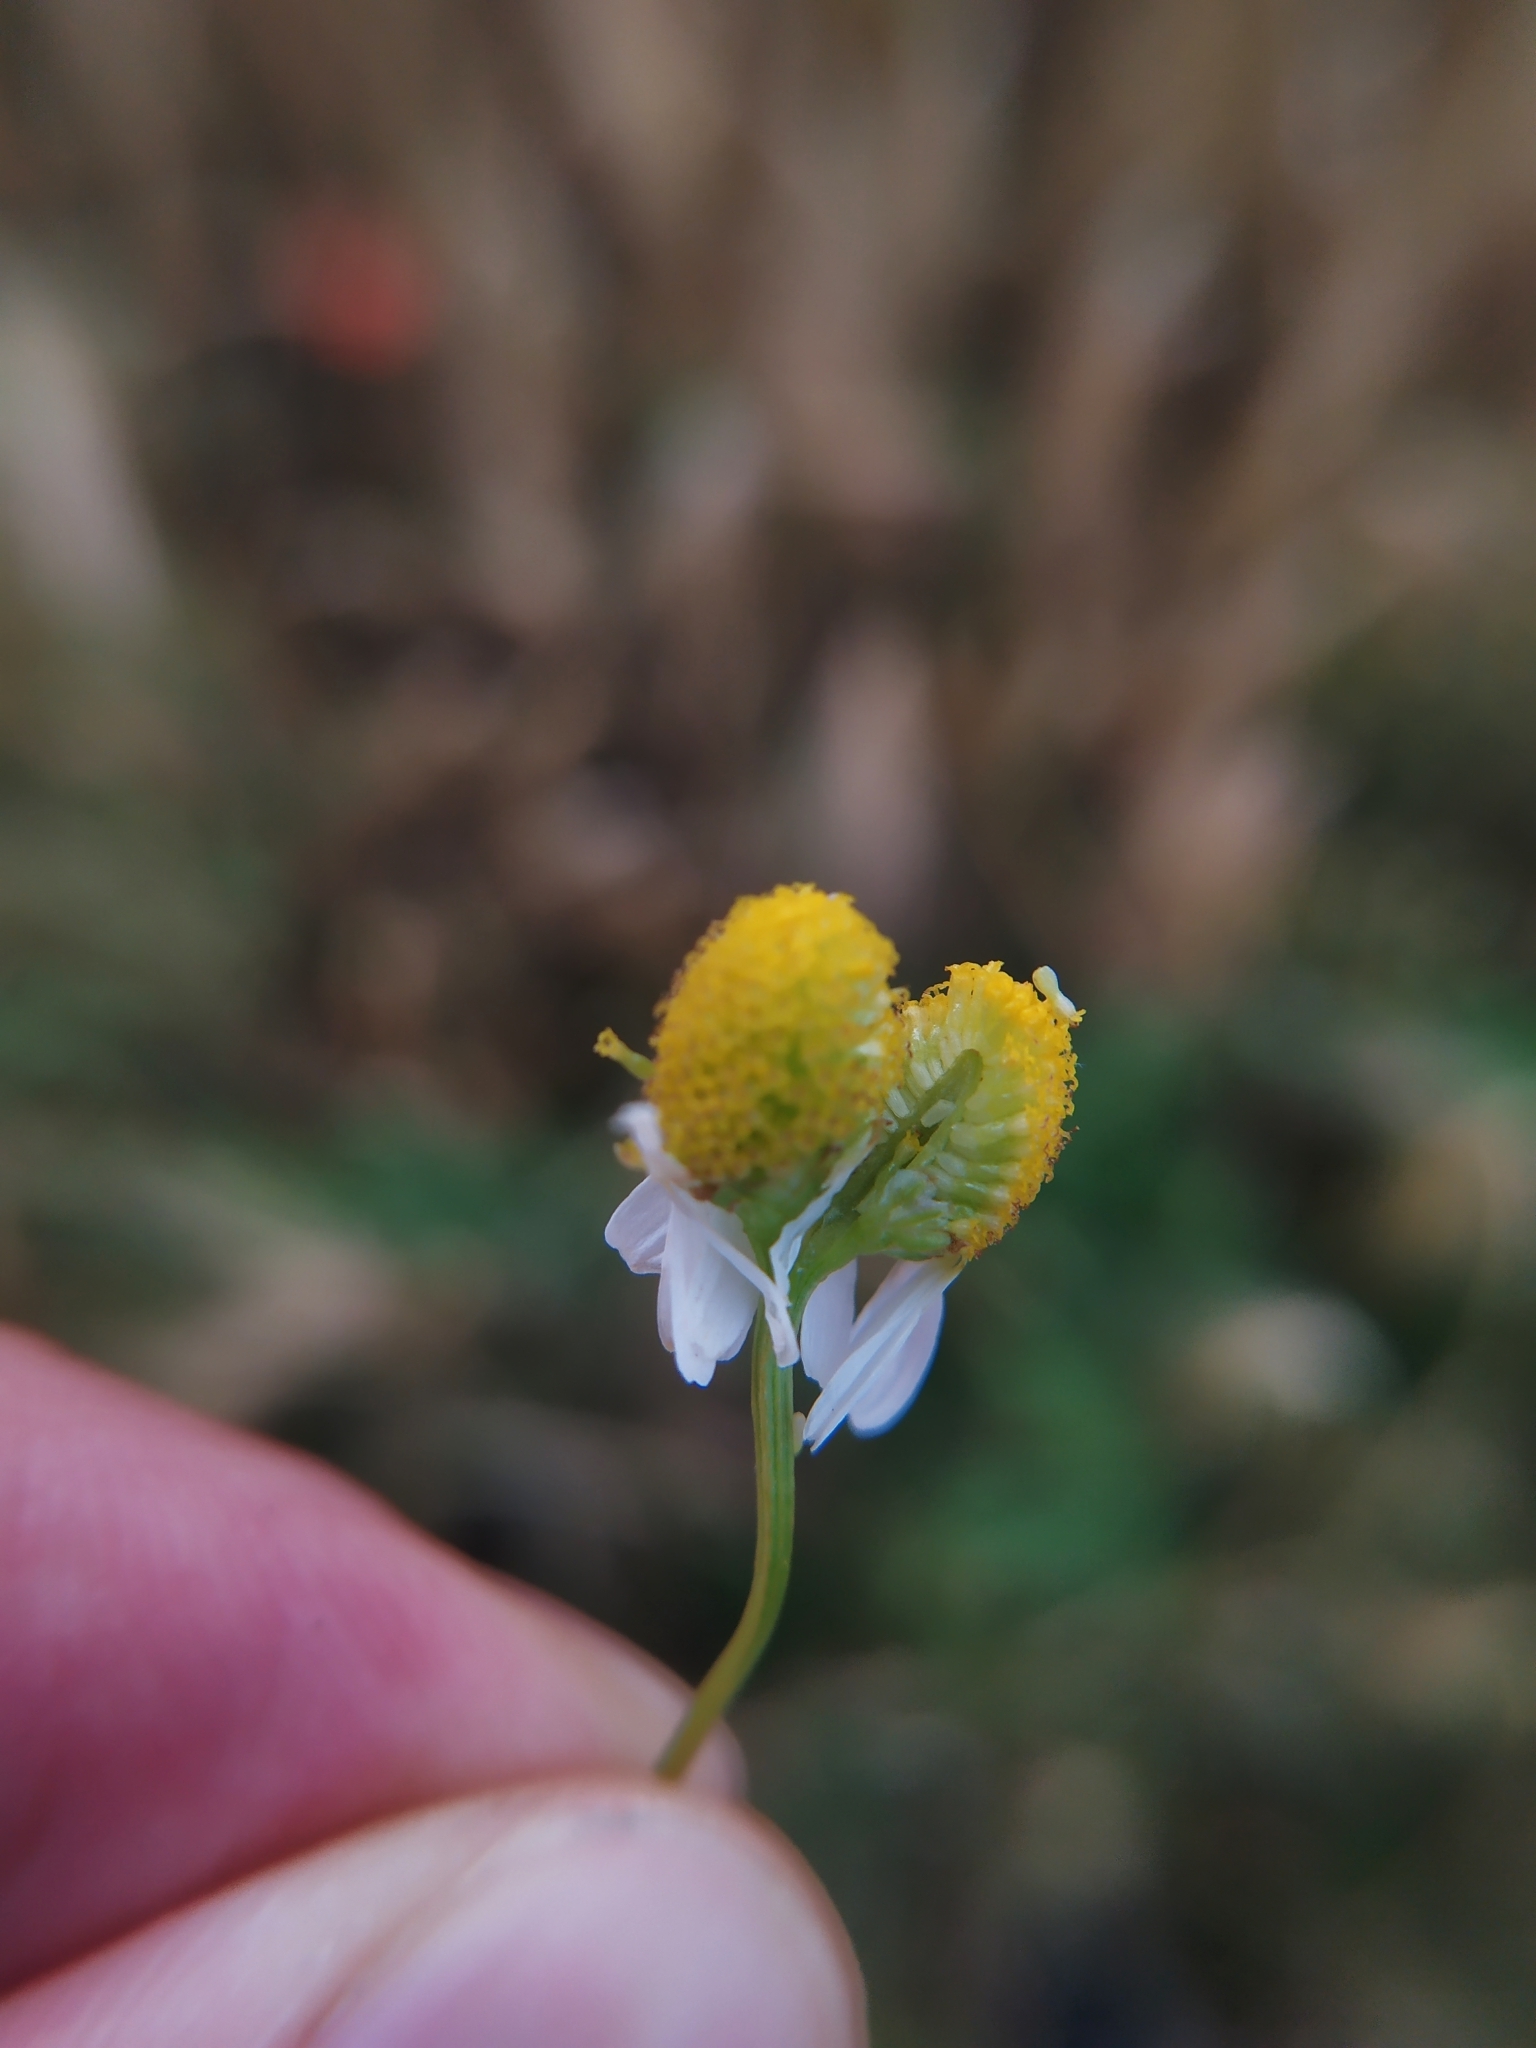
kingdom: Plantae
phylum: Tracheophyta
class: Magnoliopsida
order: Asterales
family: Asteraceae
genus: Matricaria
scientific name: Matricaria chamomilla
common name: Scented mayweed
